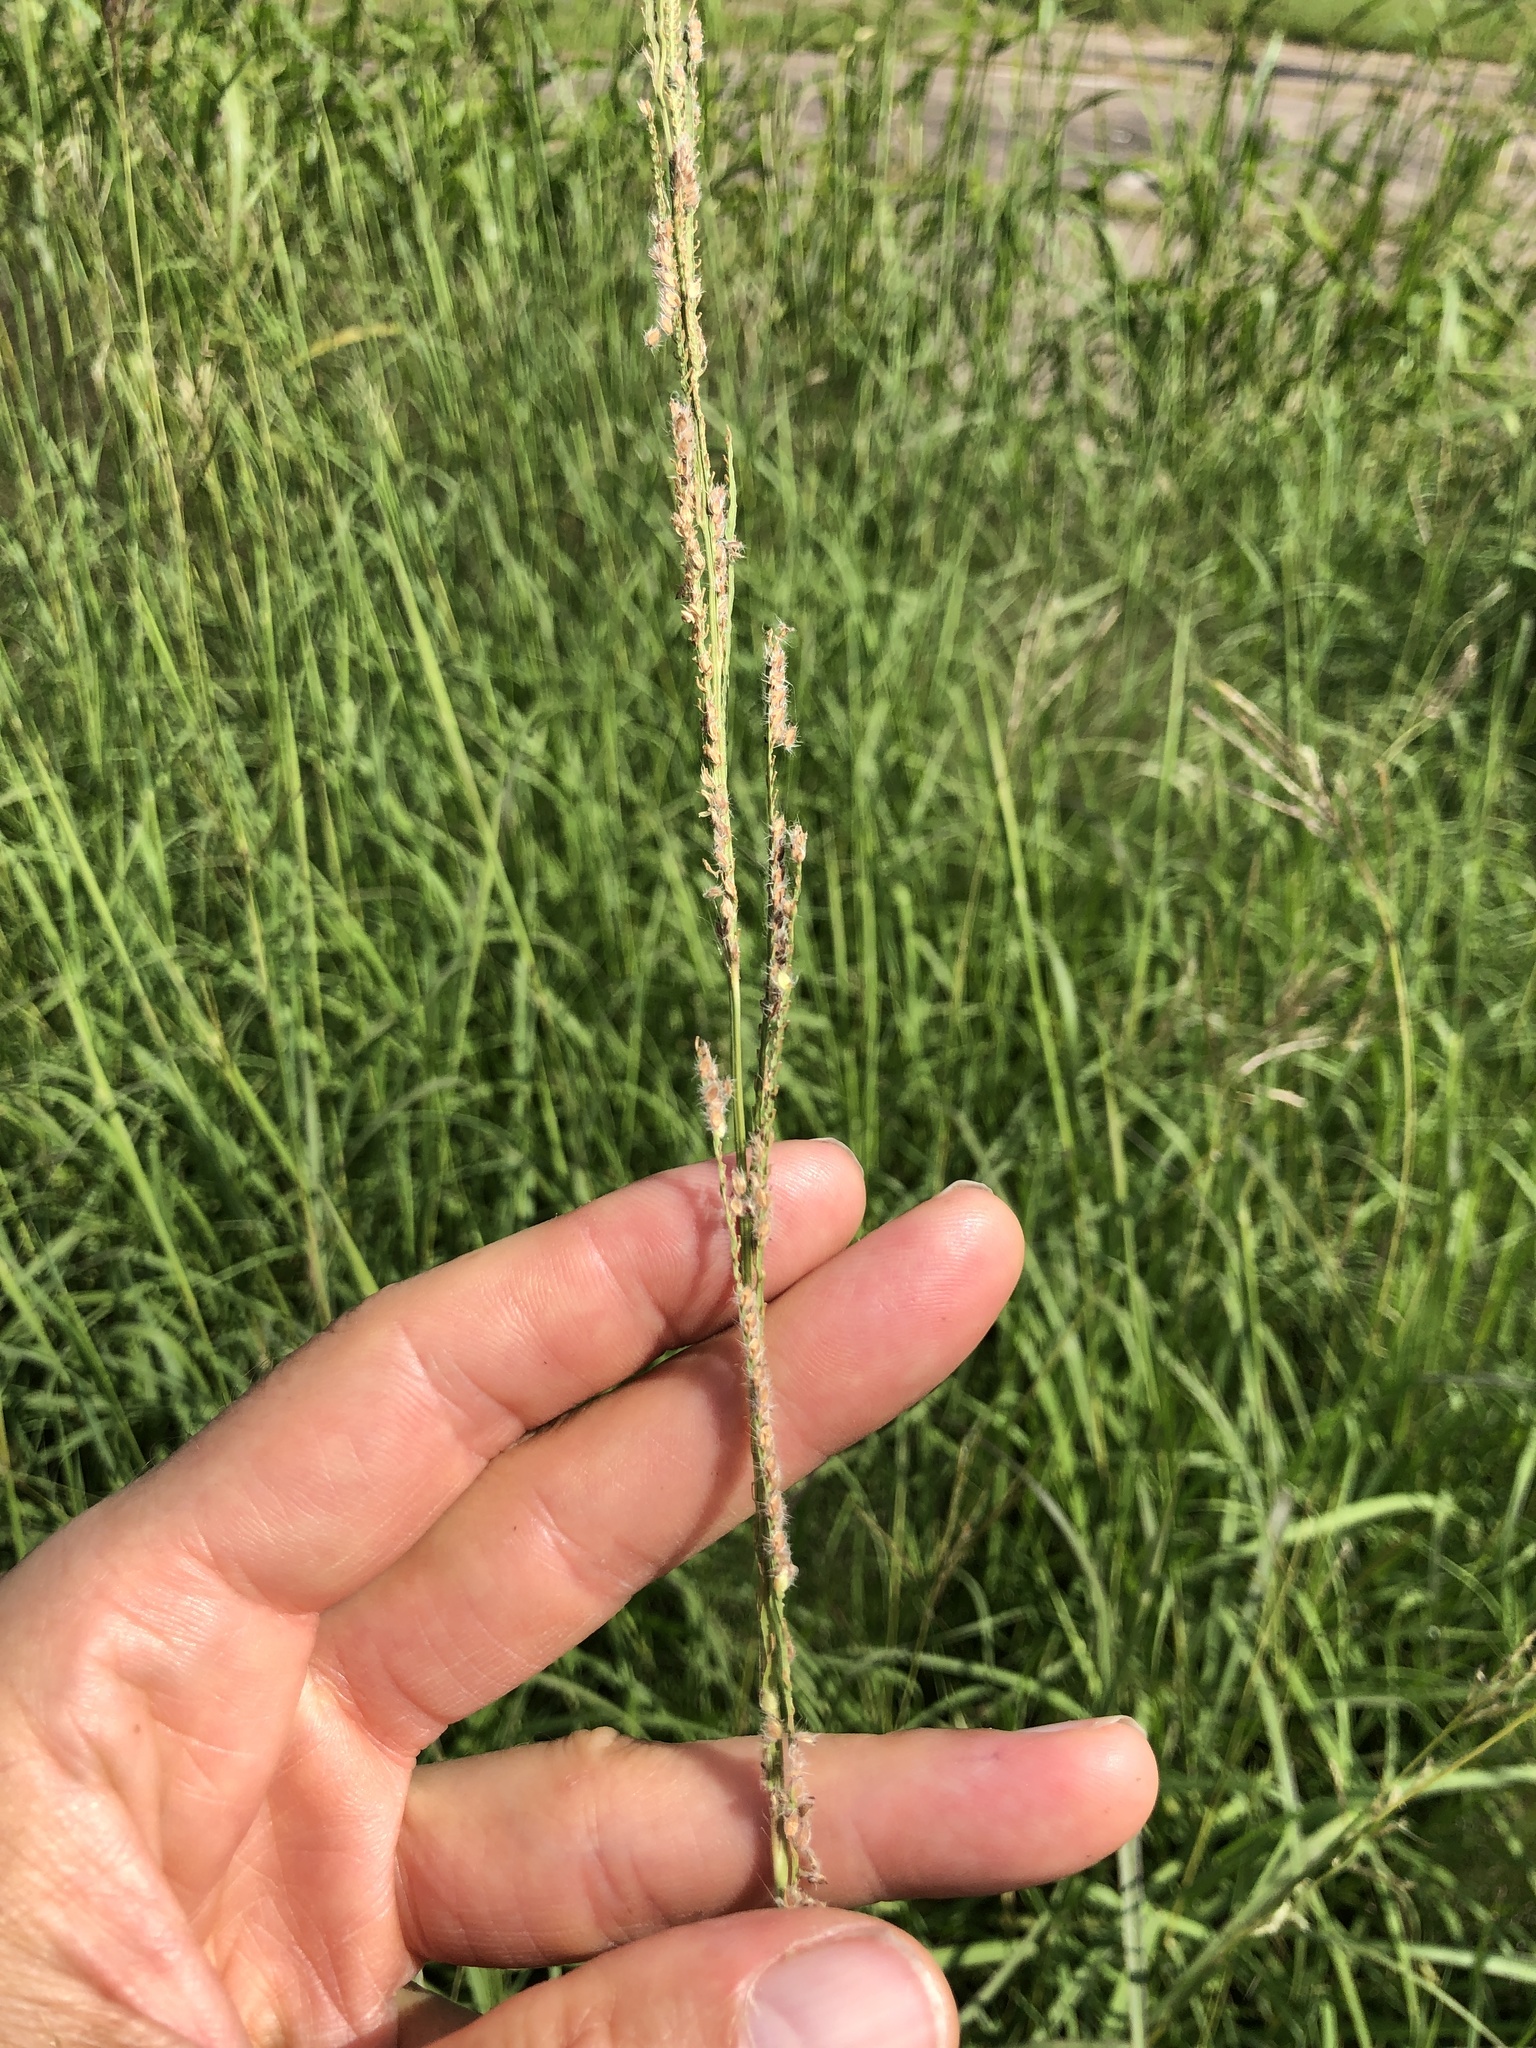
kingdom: Plantae
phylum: Tracheophyta
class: Liliopsida
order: Poales
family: Poaceae
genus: Paspalum
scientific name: Paspalum urvillei
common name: Vasey's grass
